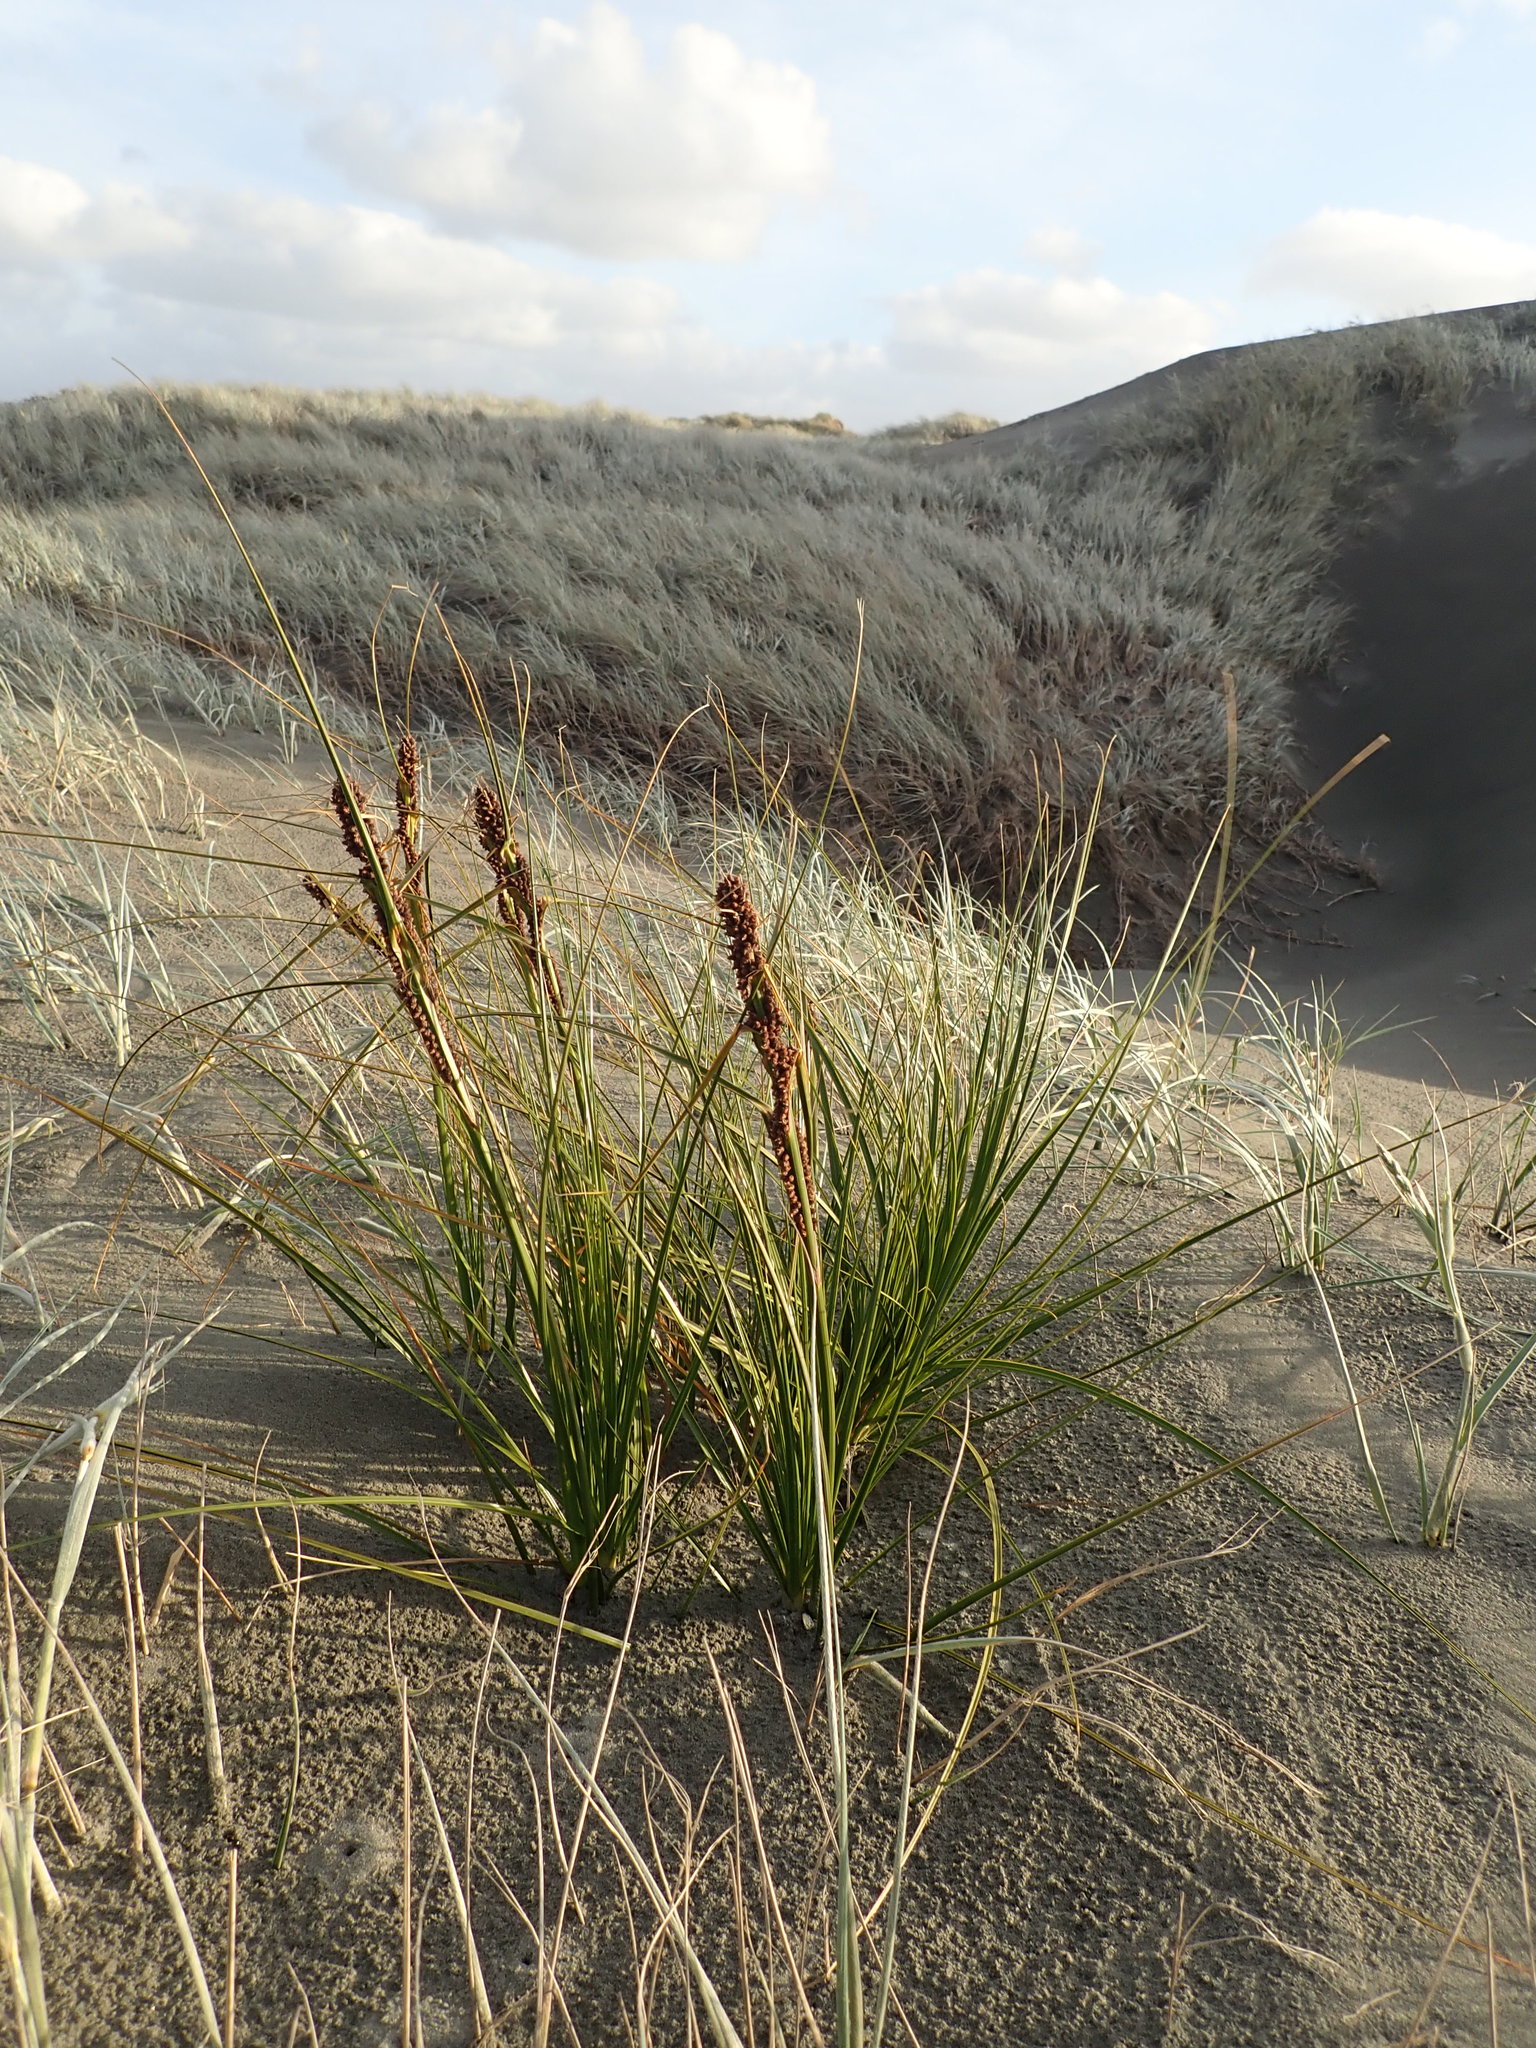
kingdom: Plantae
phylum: Tracheophyta
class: Liliopsida
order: Poales
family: Cyperaceae
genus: Ficinia
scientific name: Ficinia spiralis
